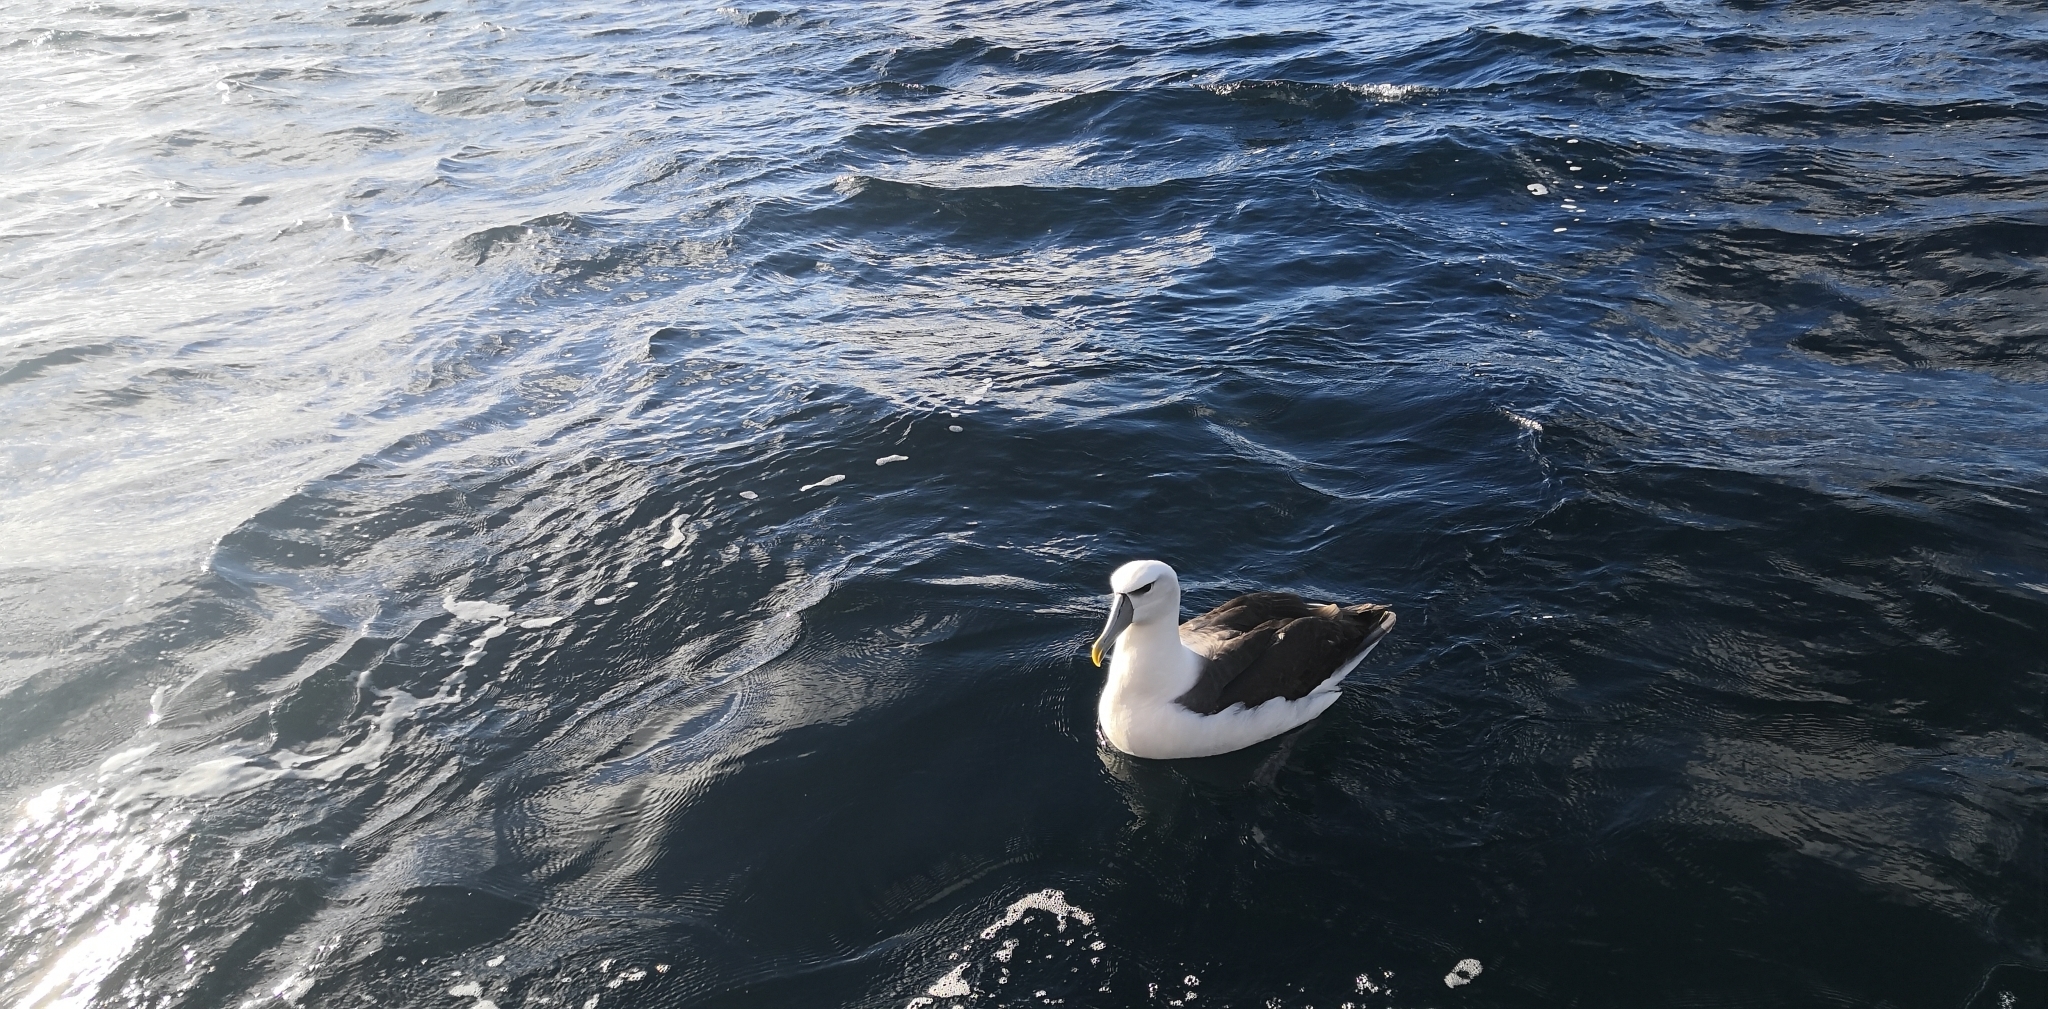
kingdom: Animalia
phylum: Chordata
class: Aves
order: Procellariiformes
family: Diomedeidae
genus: Thalassarche
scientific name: Thalassarche cauta
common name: Shy albatross
